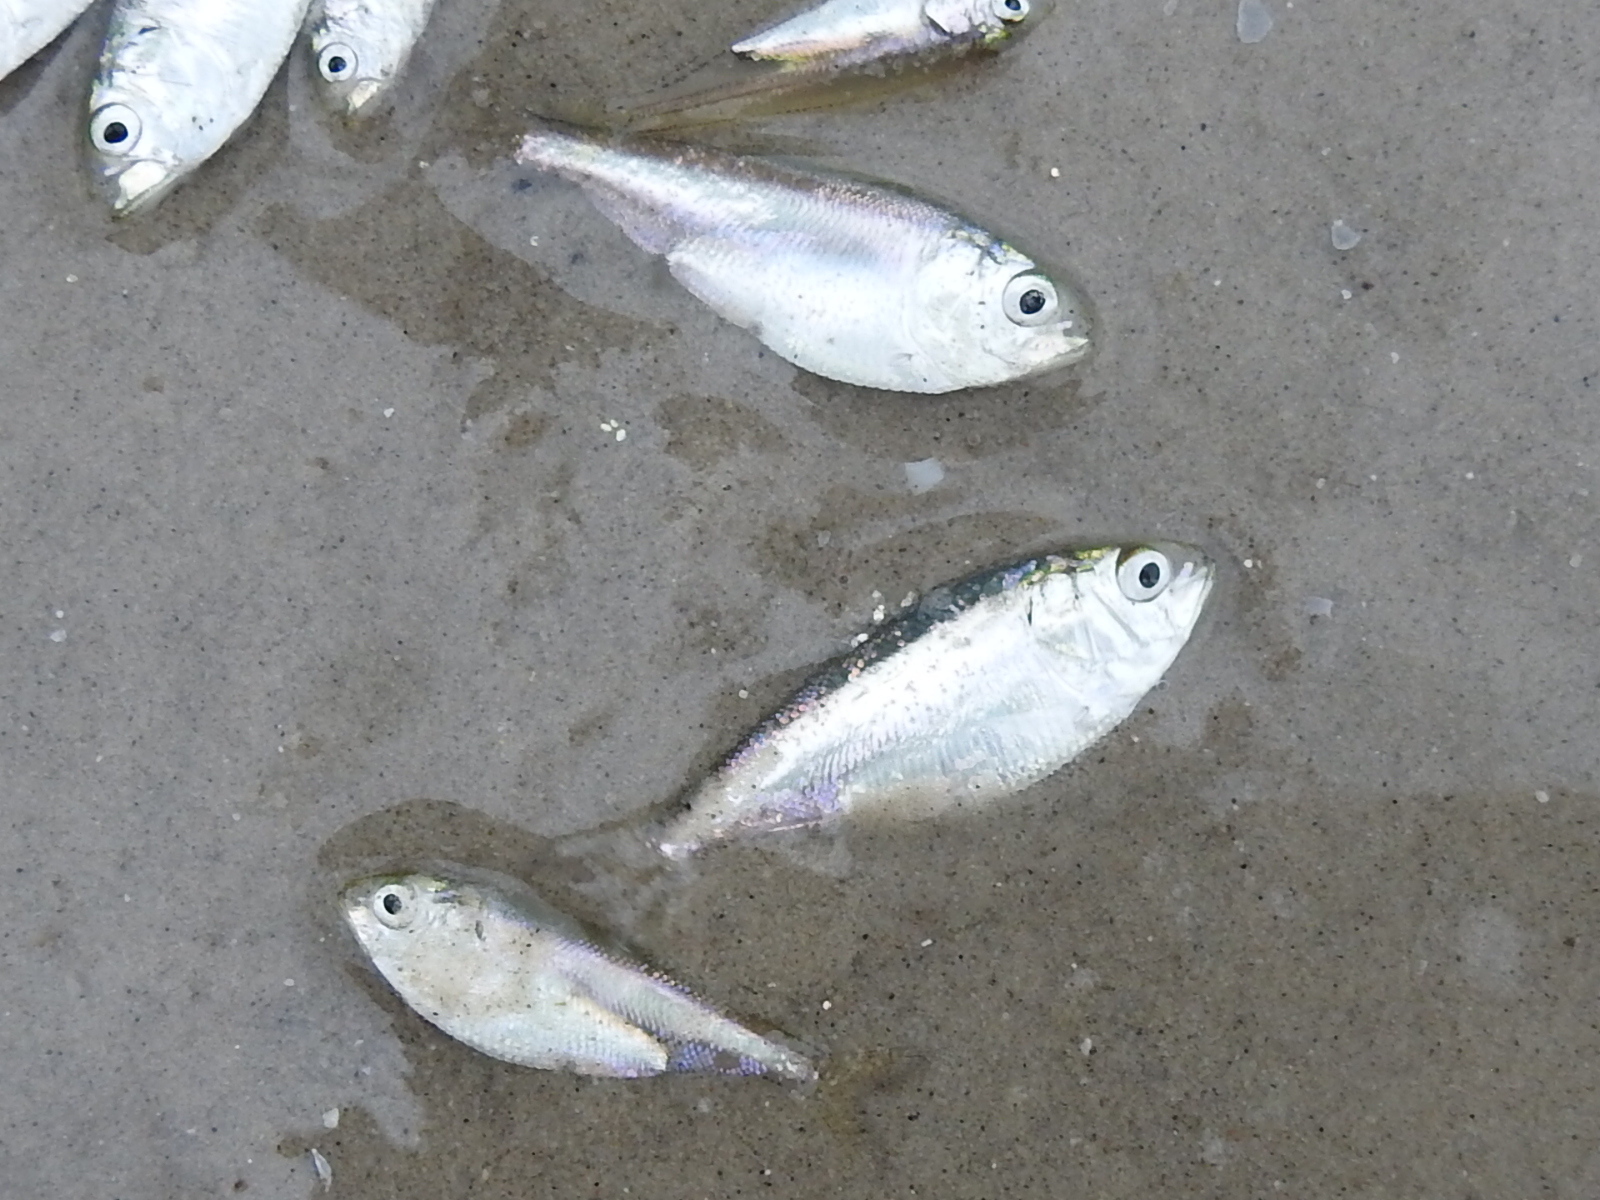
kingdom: Animalia
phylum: Chordata
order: Clupeiformes
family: Clupeidae
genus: Brevoortia
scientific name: Brevoortia patronus
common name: Gulf menhaden
